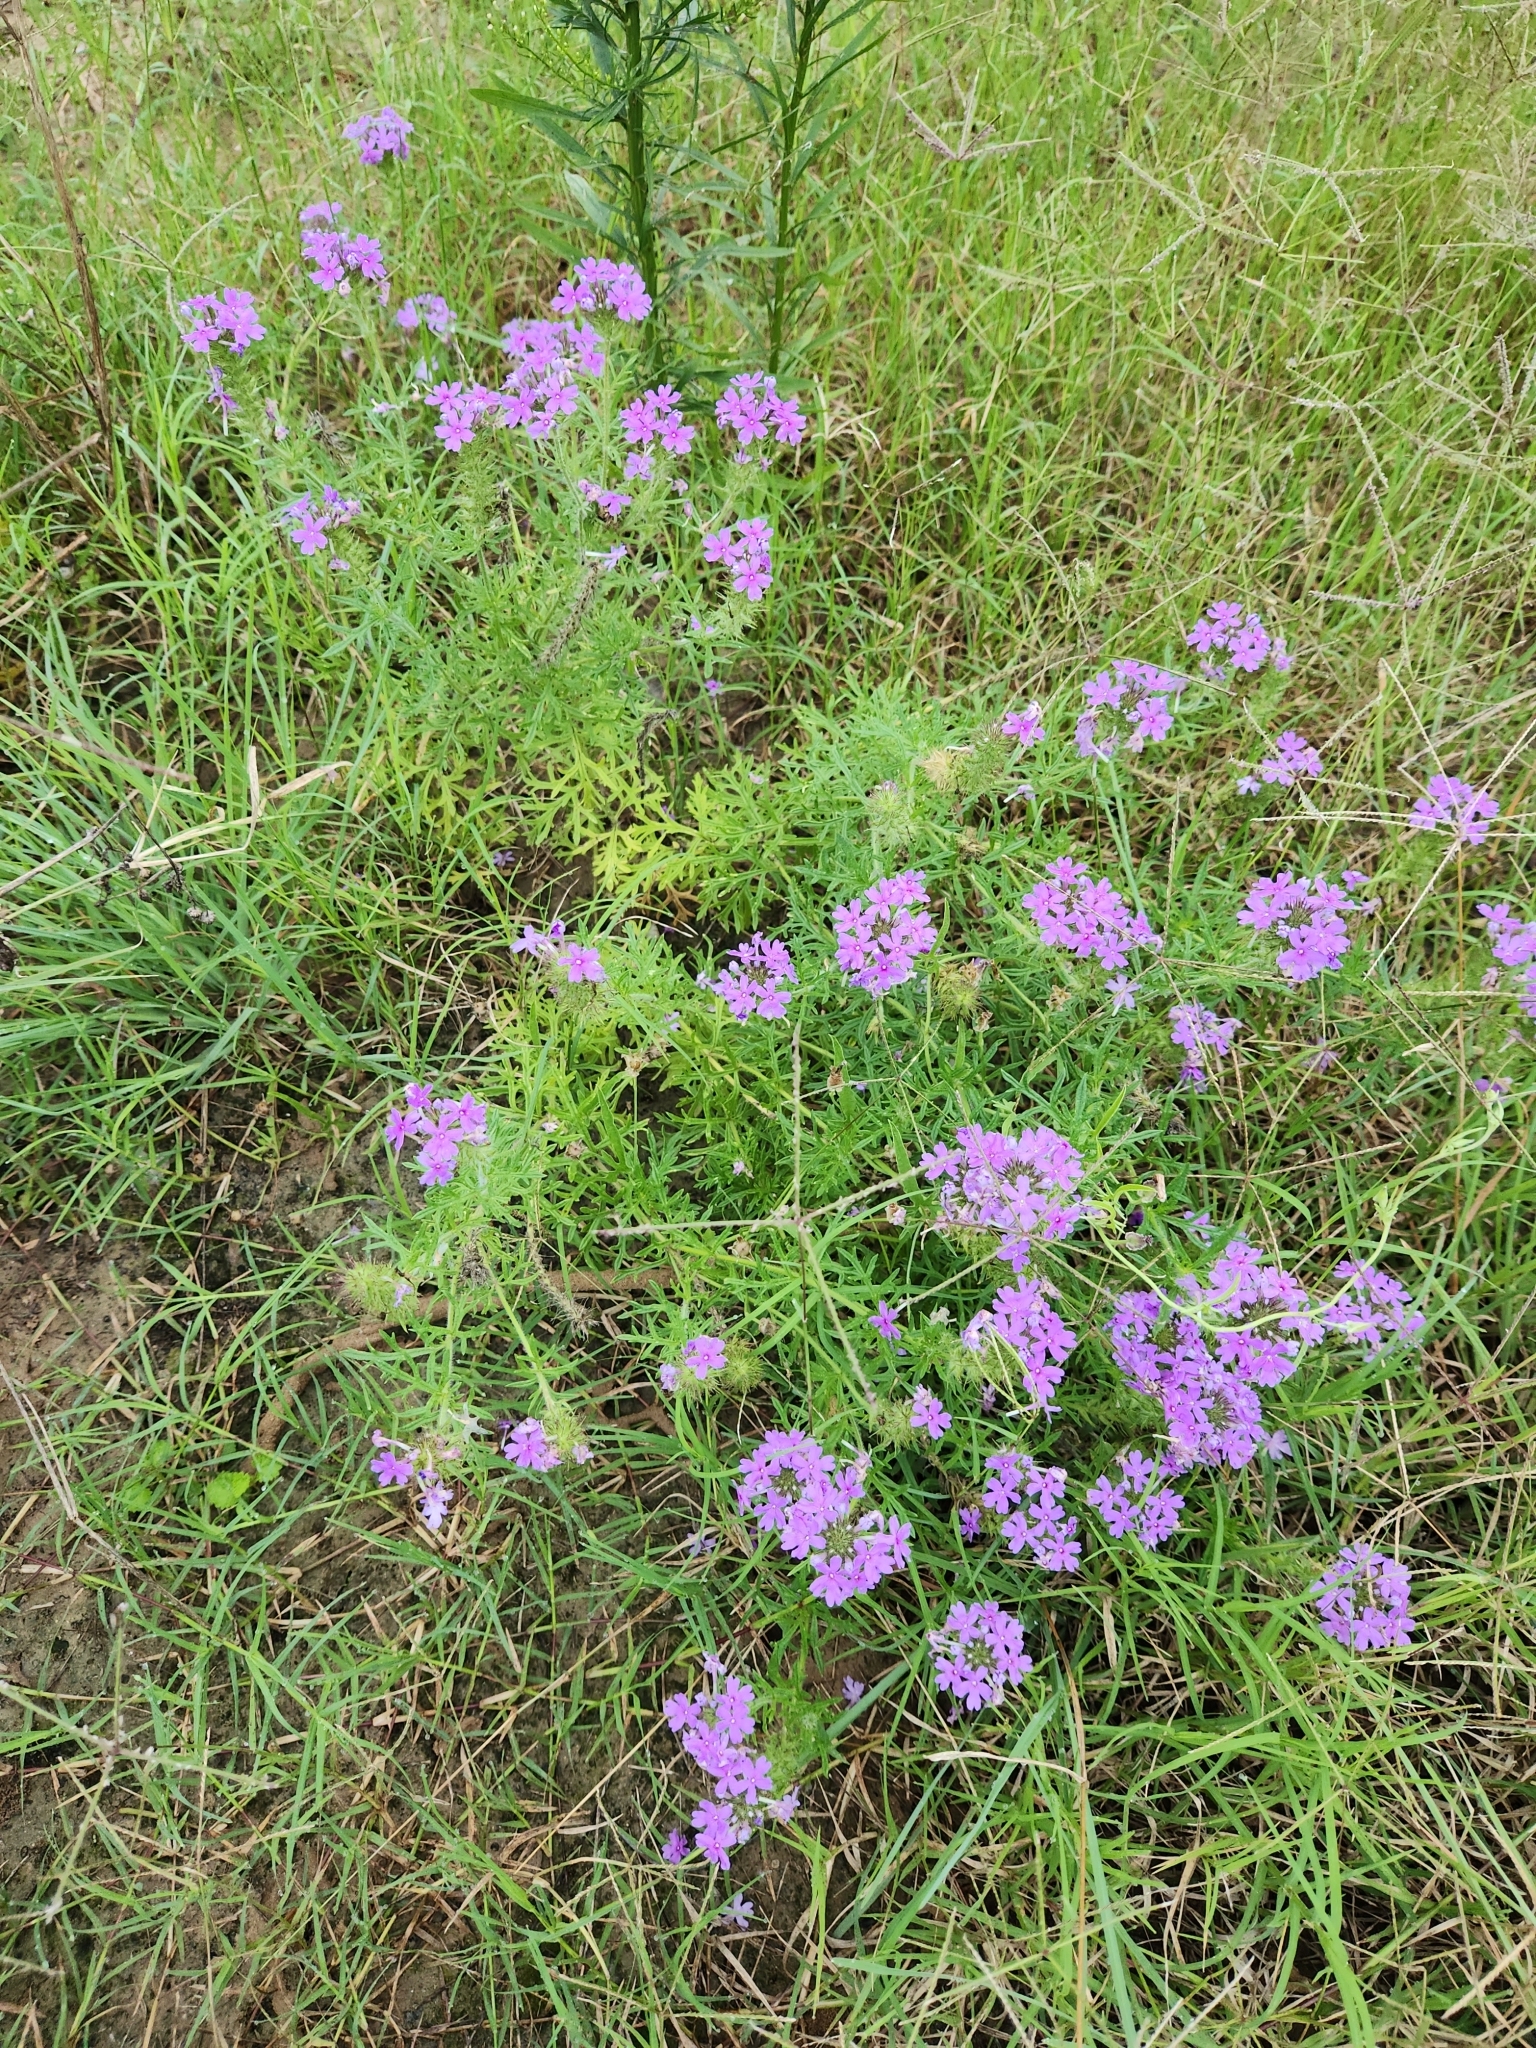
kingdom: Plantae
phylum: Tracheophyta
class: Magnoliopsida
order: Lamiales
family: Verbenaceae
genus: Verbena
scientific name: Verbena bipinnatifida
